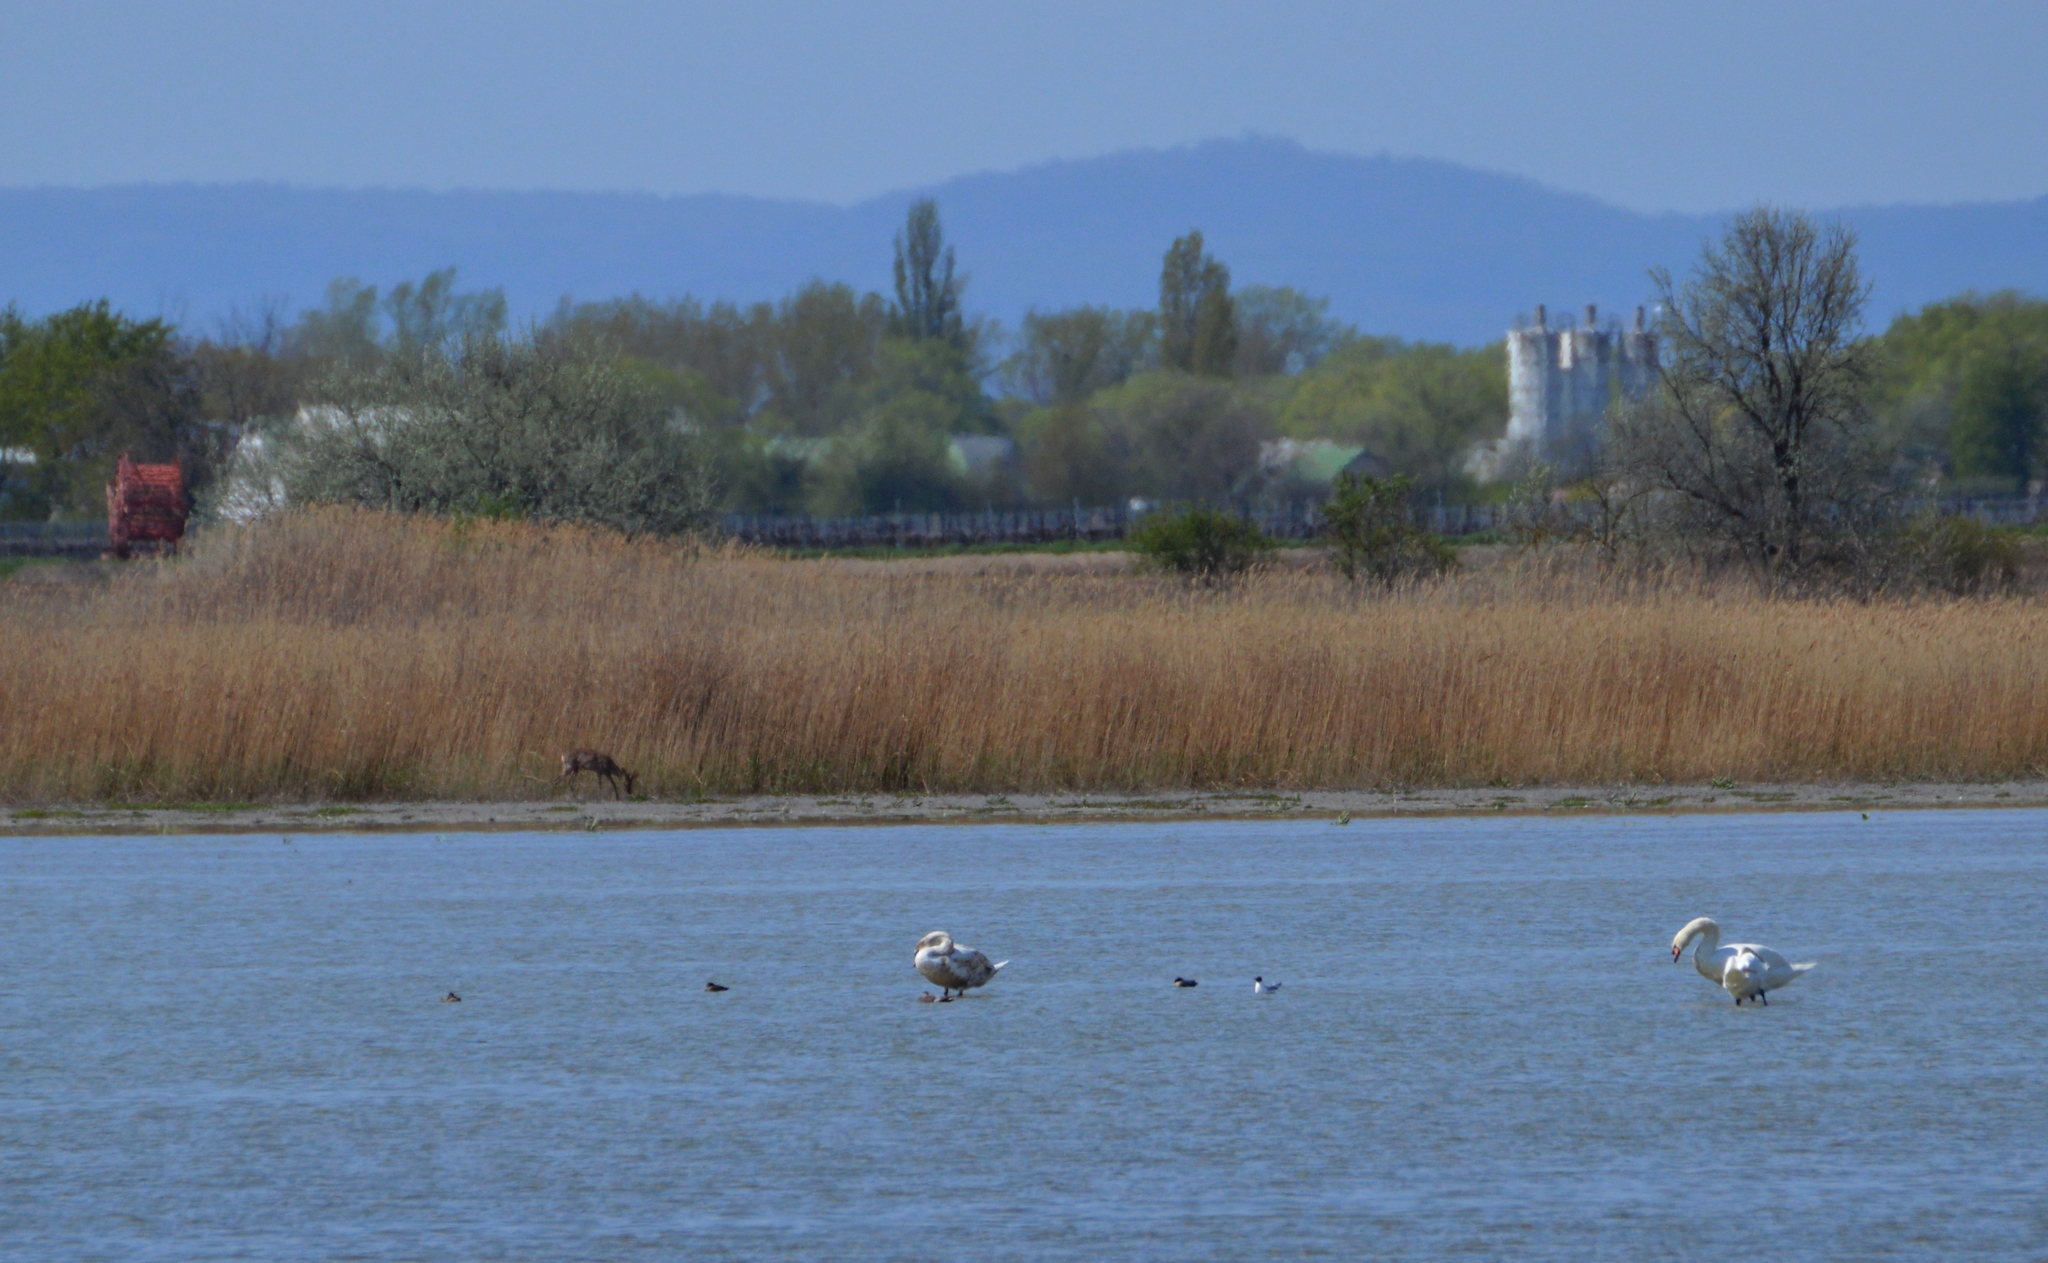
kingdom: Animalia
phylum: Chordata
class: Mammalia
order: Artiodactyla
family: Cervidae
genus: Capreolus
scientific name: Capreolus capreolus
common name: Western roe deer
